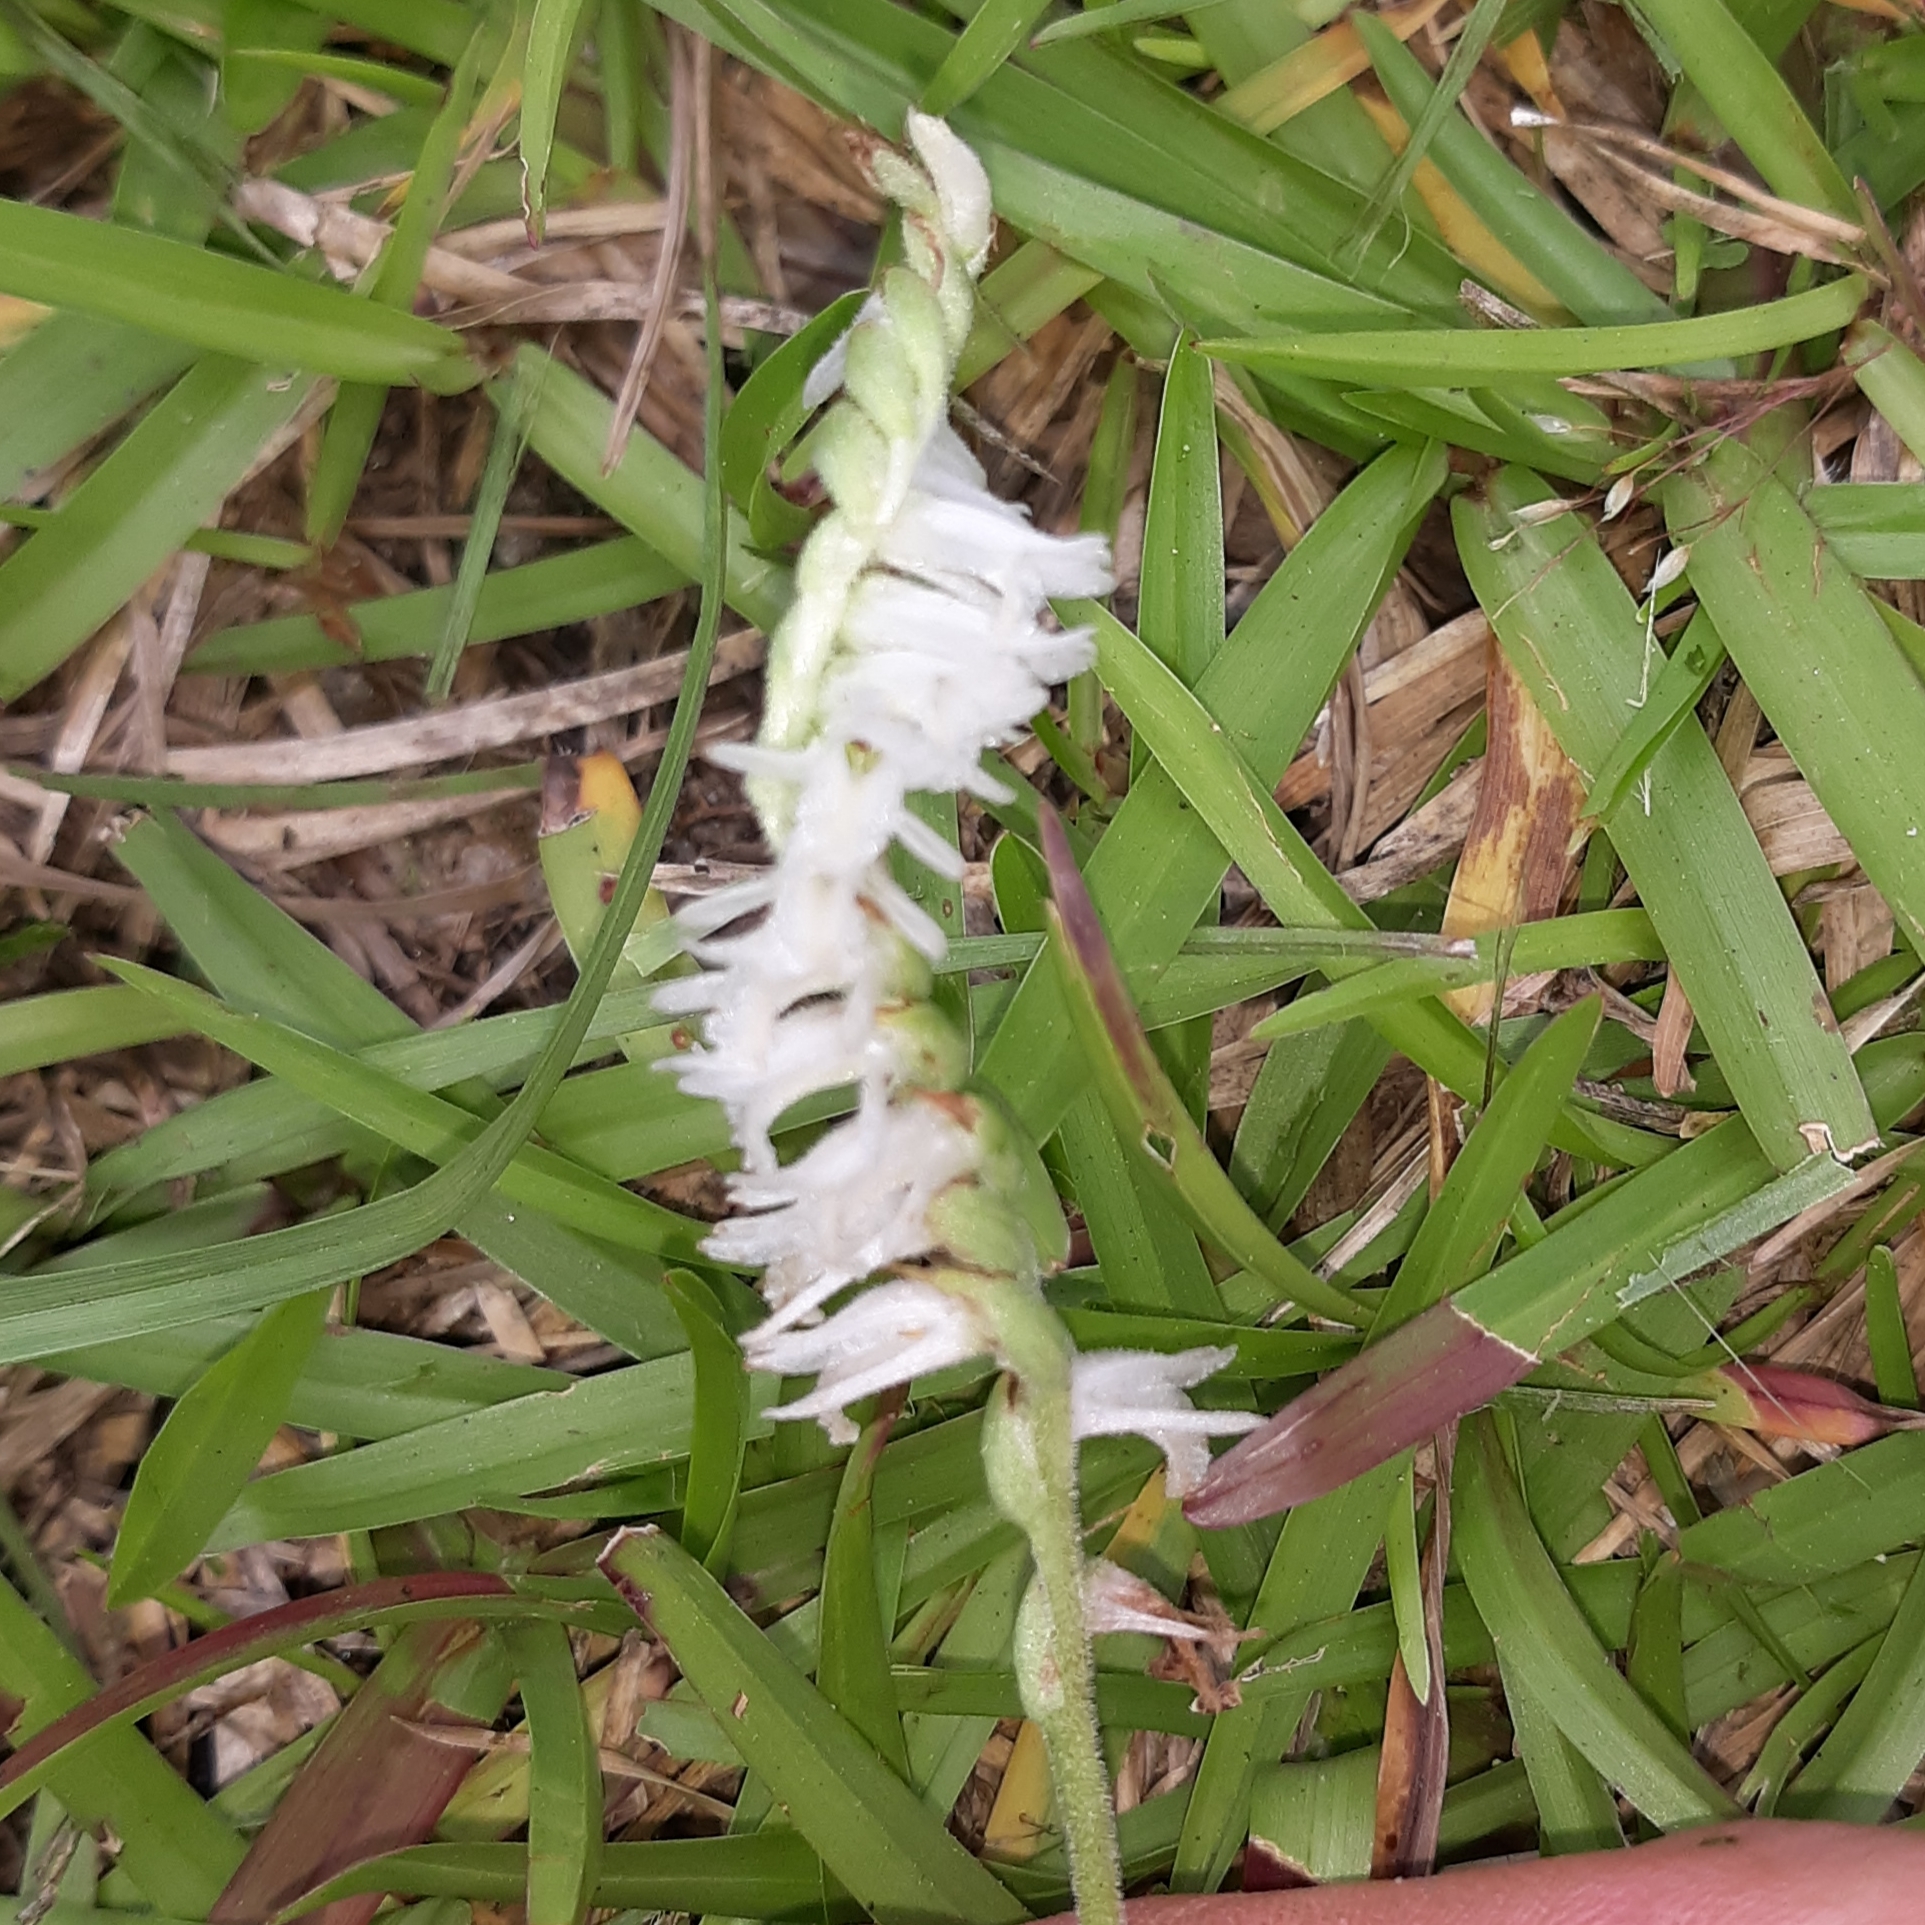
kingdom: Plantae
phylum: Tracheophyta
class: Liliopsida
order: Asparagales
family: Orchidaceae
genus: Spiranthes
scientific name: Spiranthes vernalis
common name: Spring ladies'-tresses
